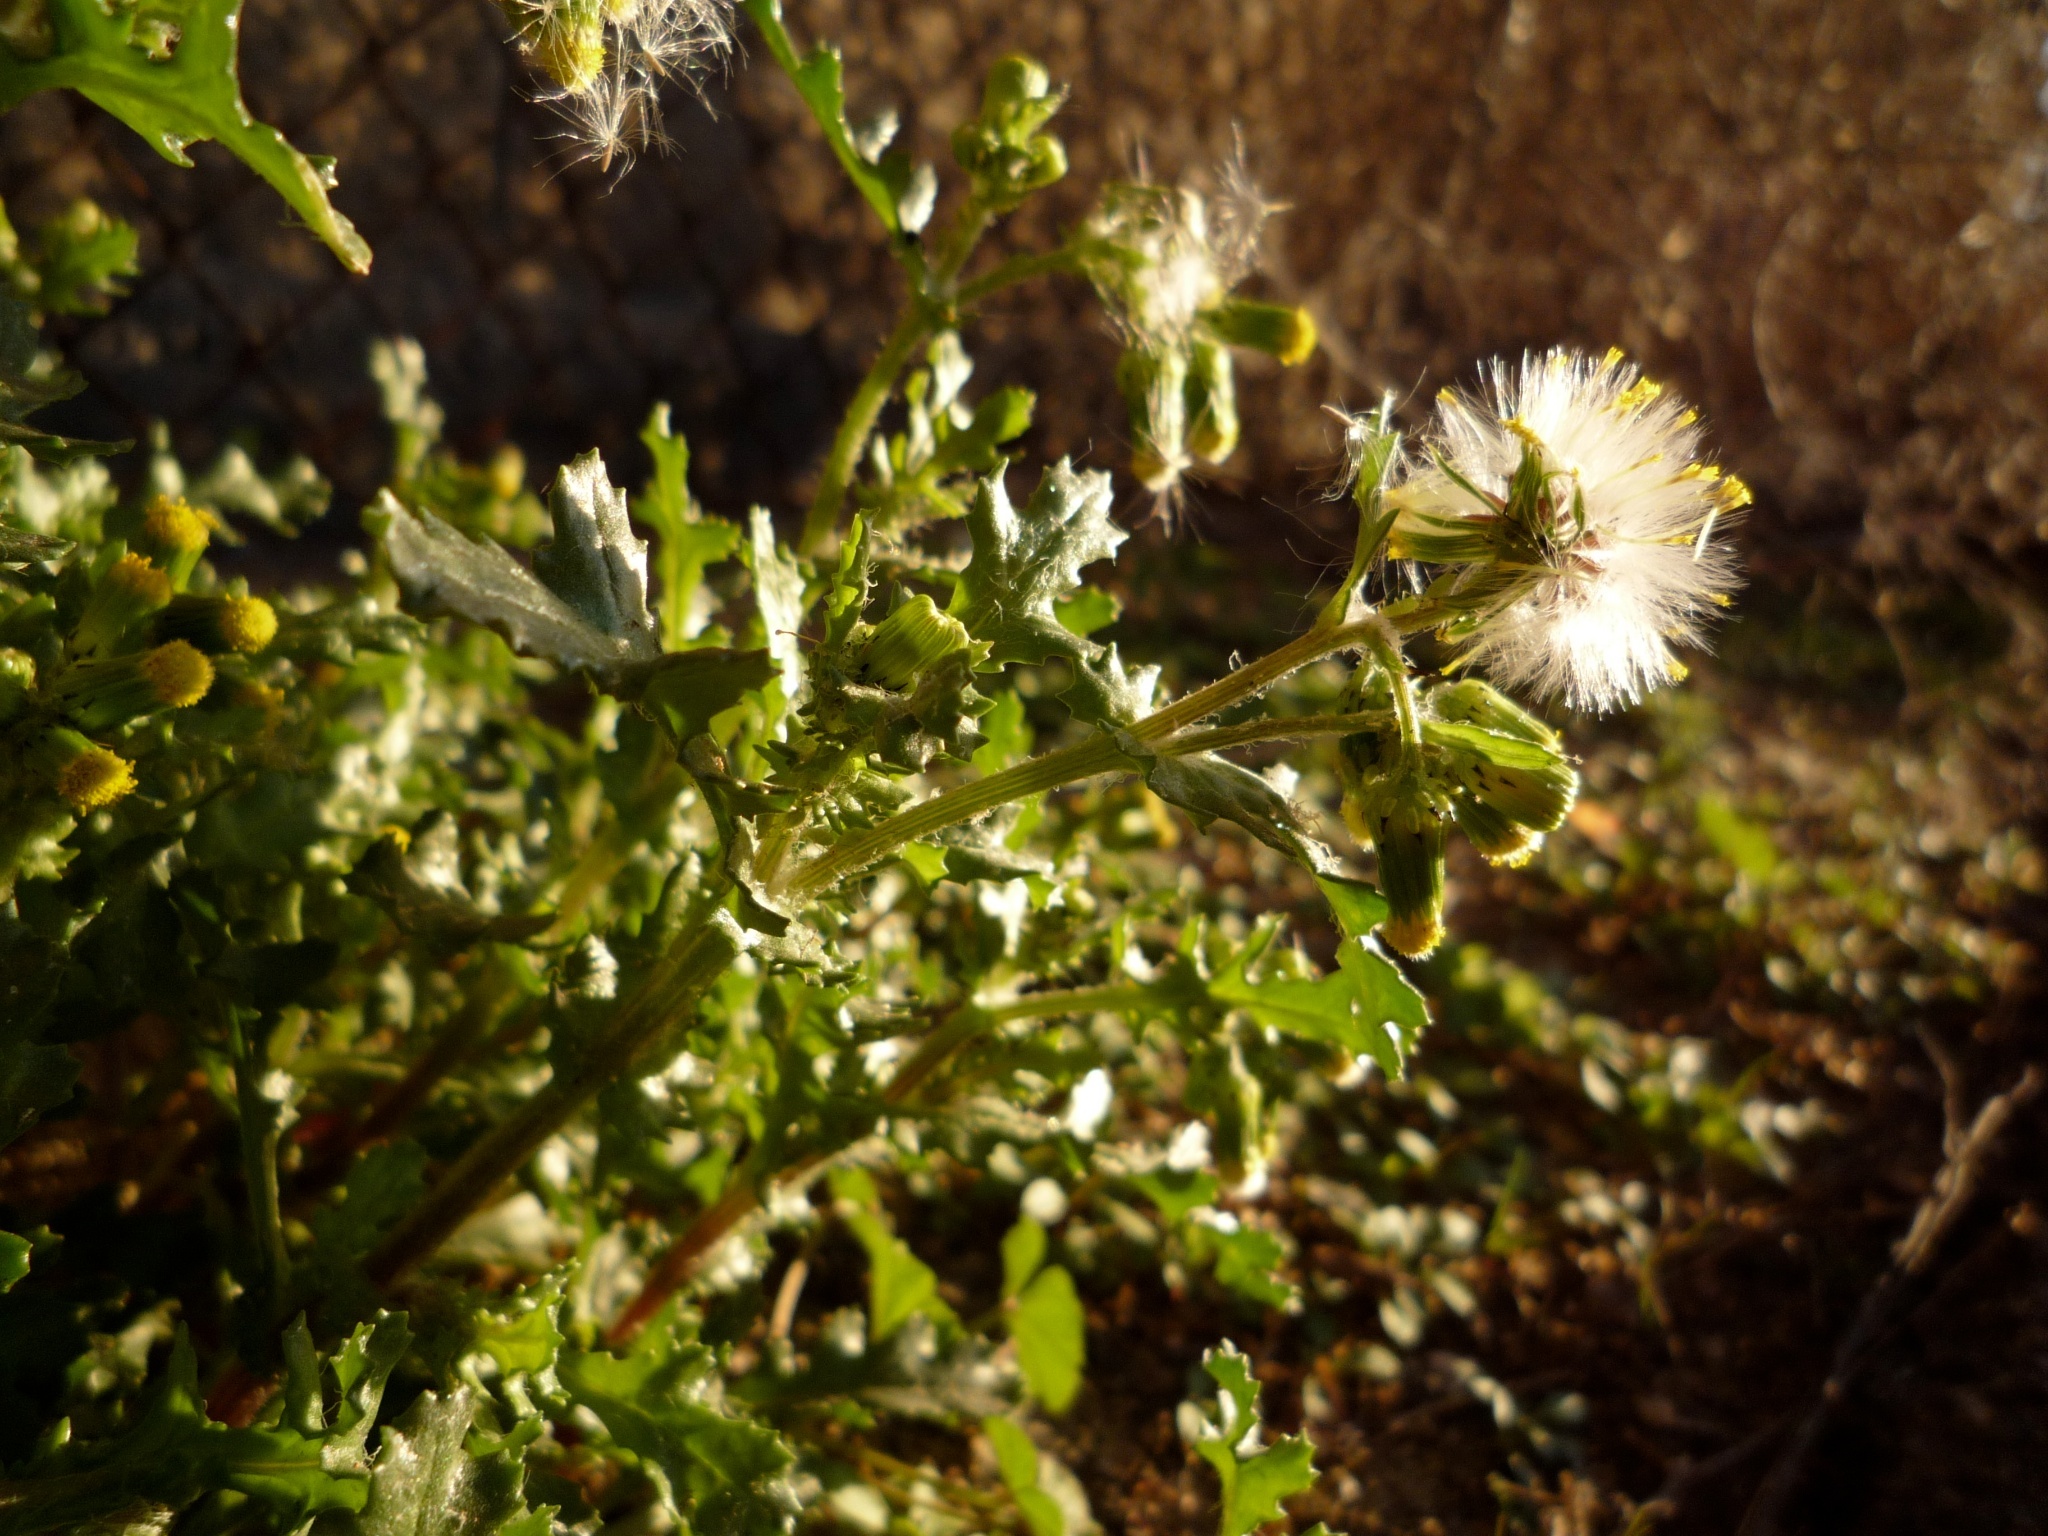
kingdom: Plantae
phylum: Tracheophyta
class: Magnoliopsida
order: Asterales
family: Asteraceae
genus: Senecio
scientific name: Senecio vulgaris
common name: Old-man-in-the-spring
